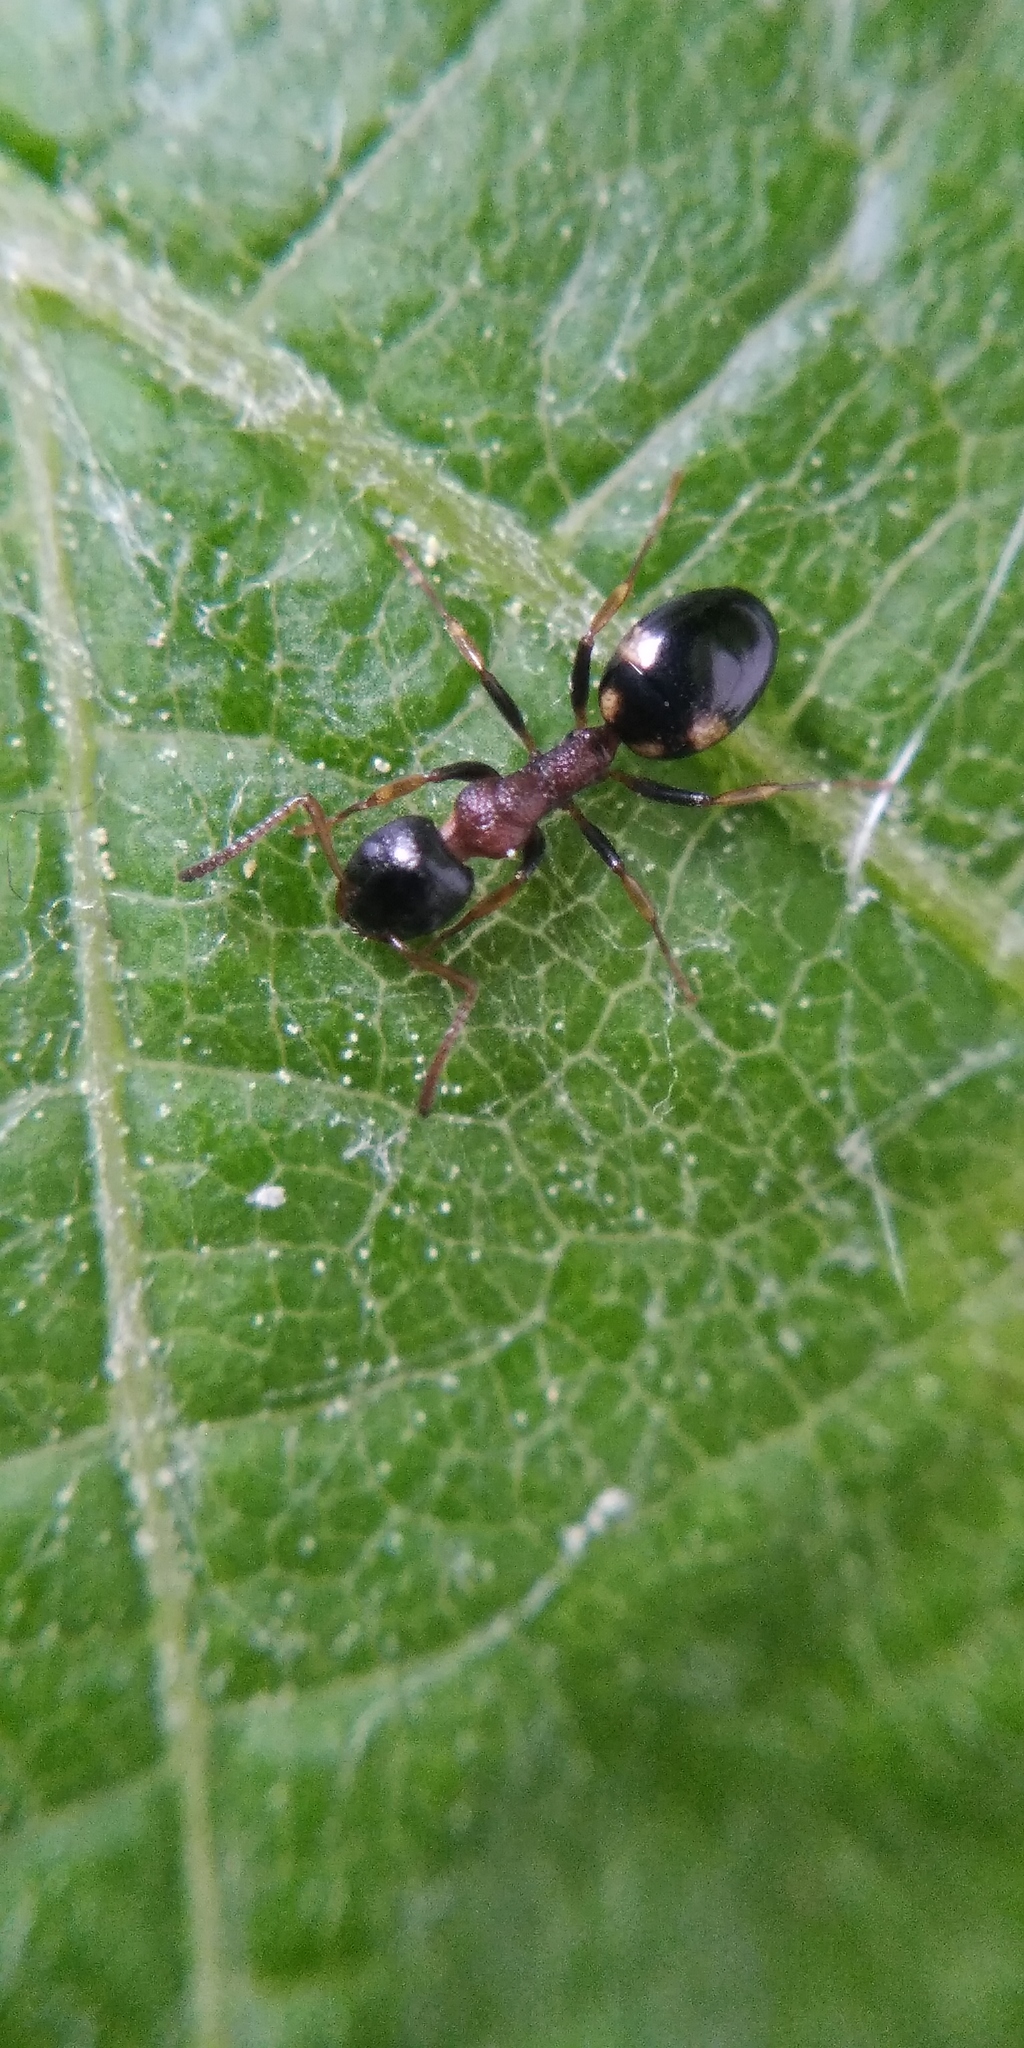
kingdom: Animalia
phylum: Arthropoda
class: Insecta
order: Hymenoptera
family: Formicidae
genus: Dolichoderus
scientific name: Dolichoderus quadripunctatus
